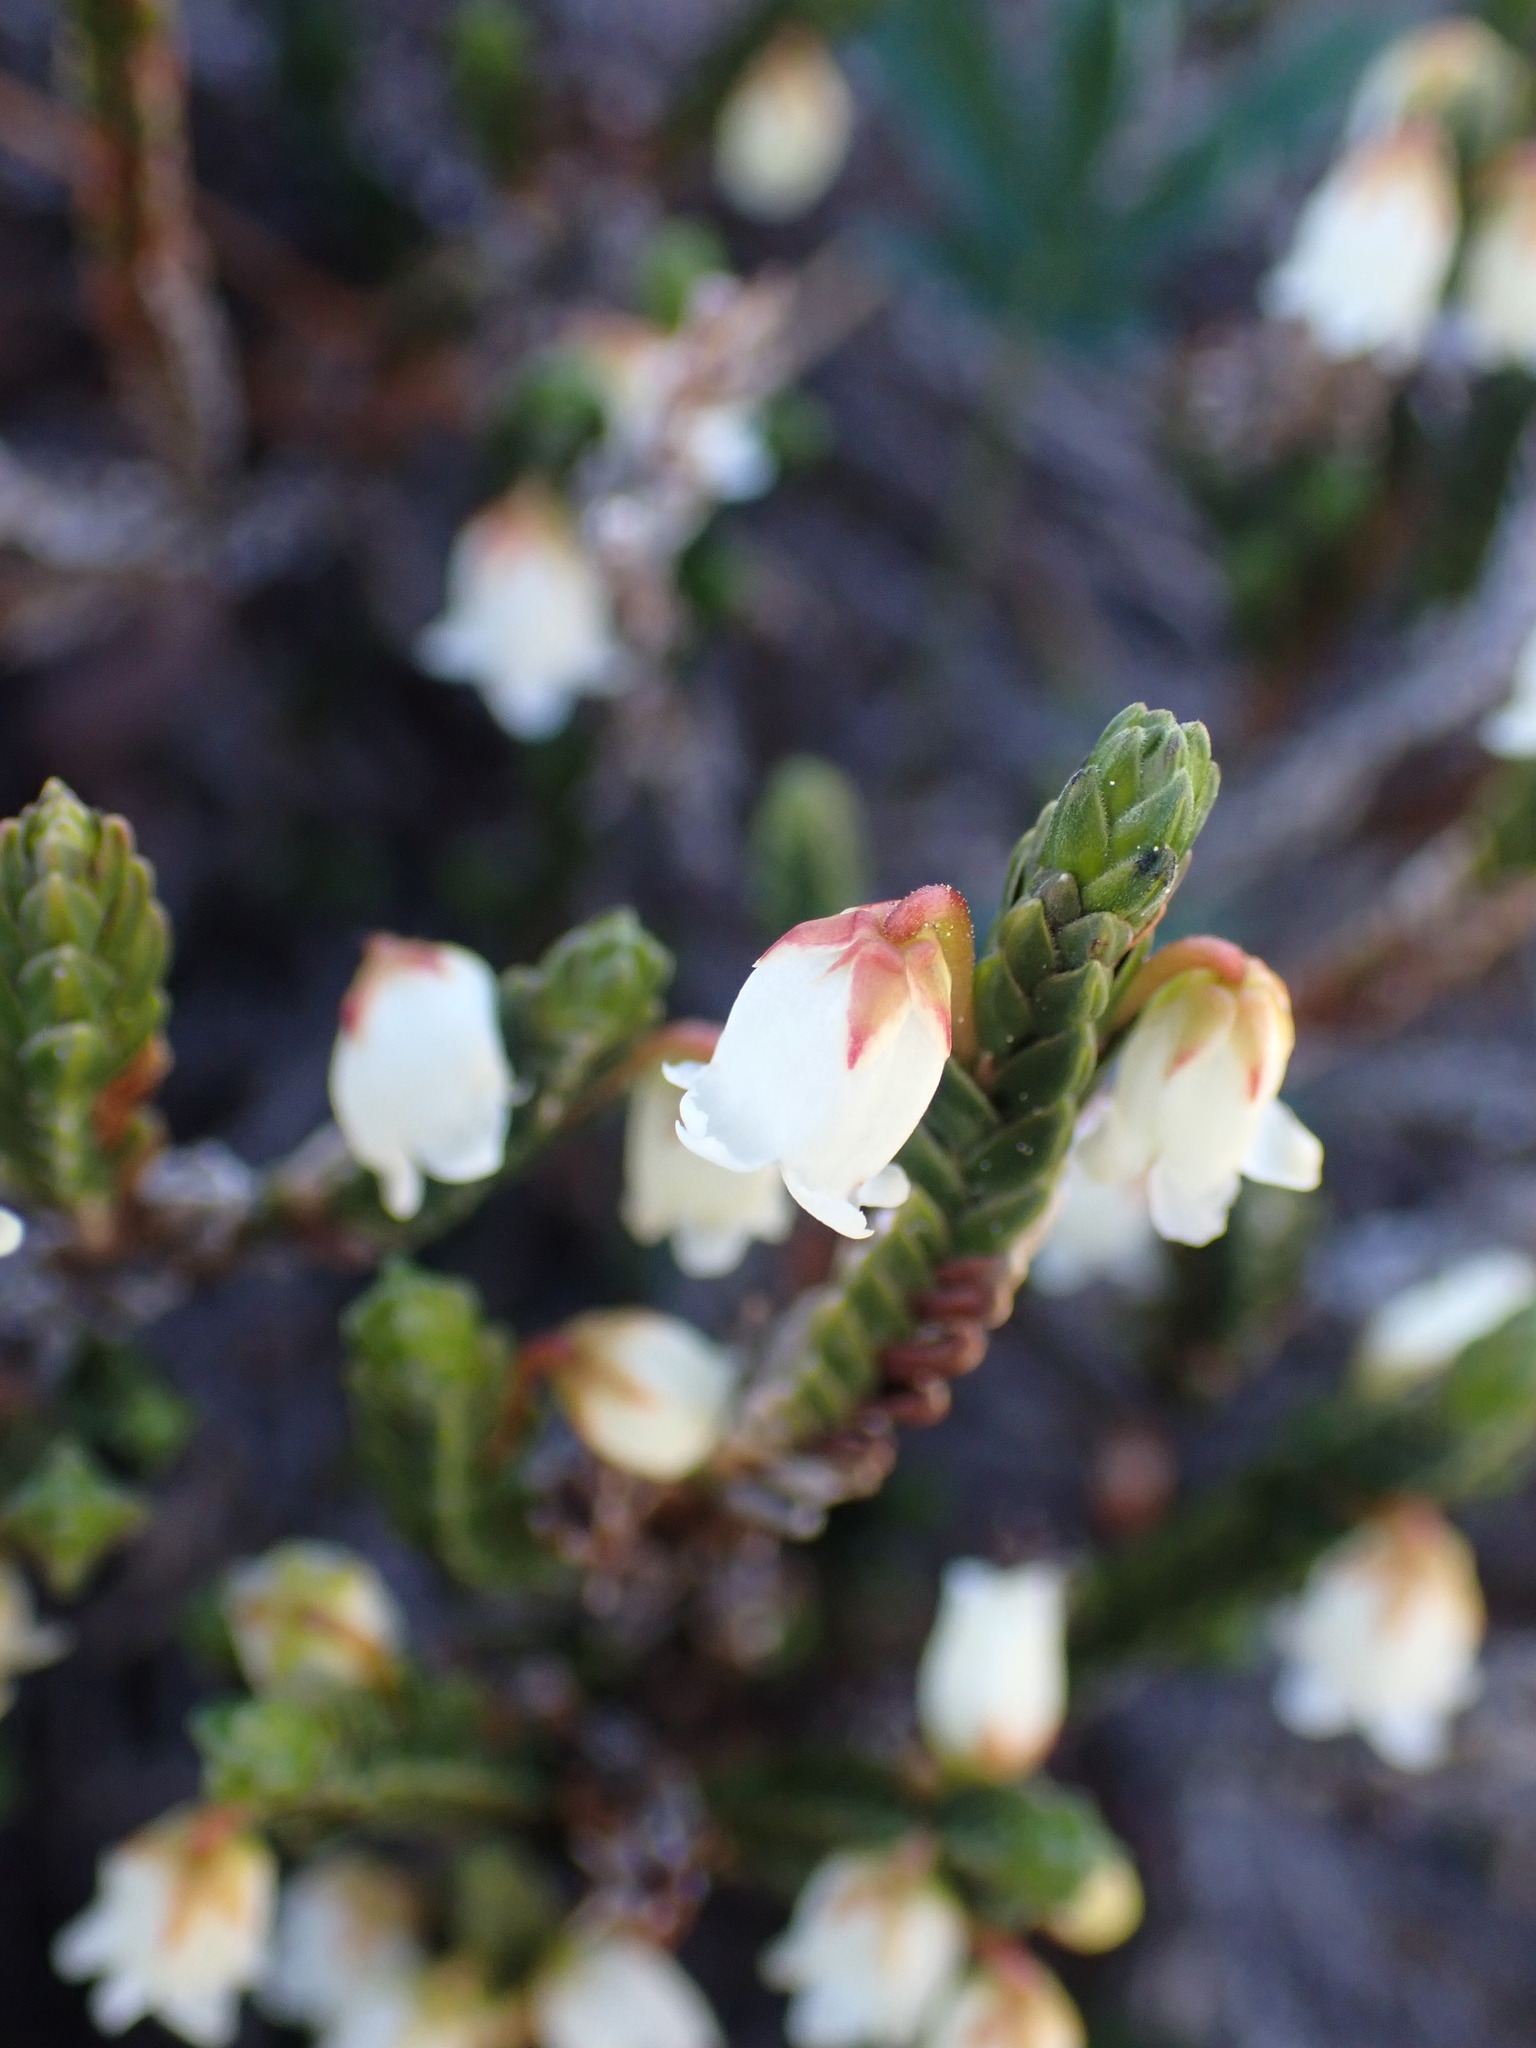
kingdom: Plantae
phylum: Tracheophyta
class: Magnoliopsida
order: Ericales
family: Ericaceae
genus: Cassiope
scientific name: Cassiope tetragona
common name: Arctic bell heather
